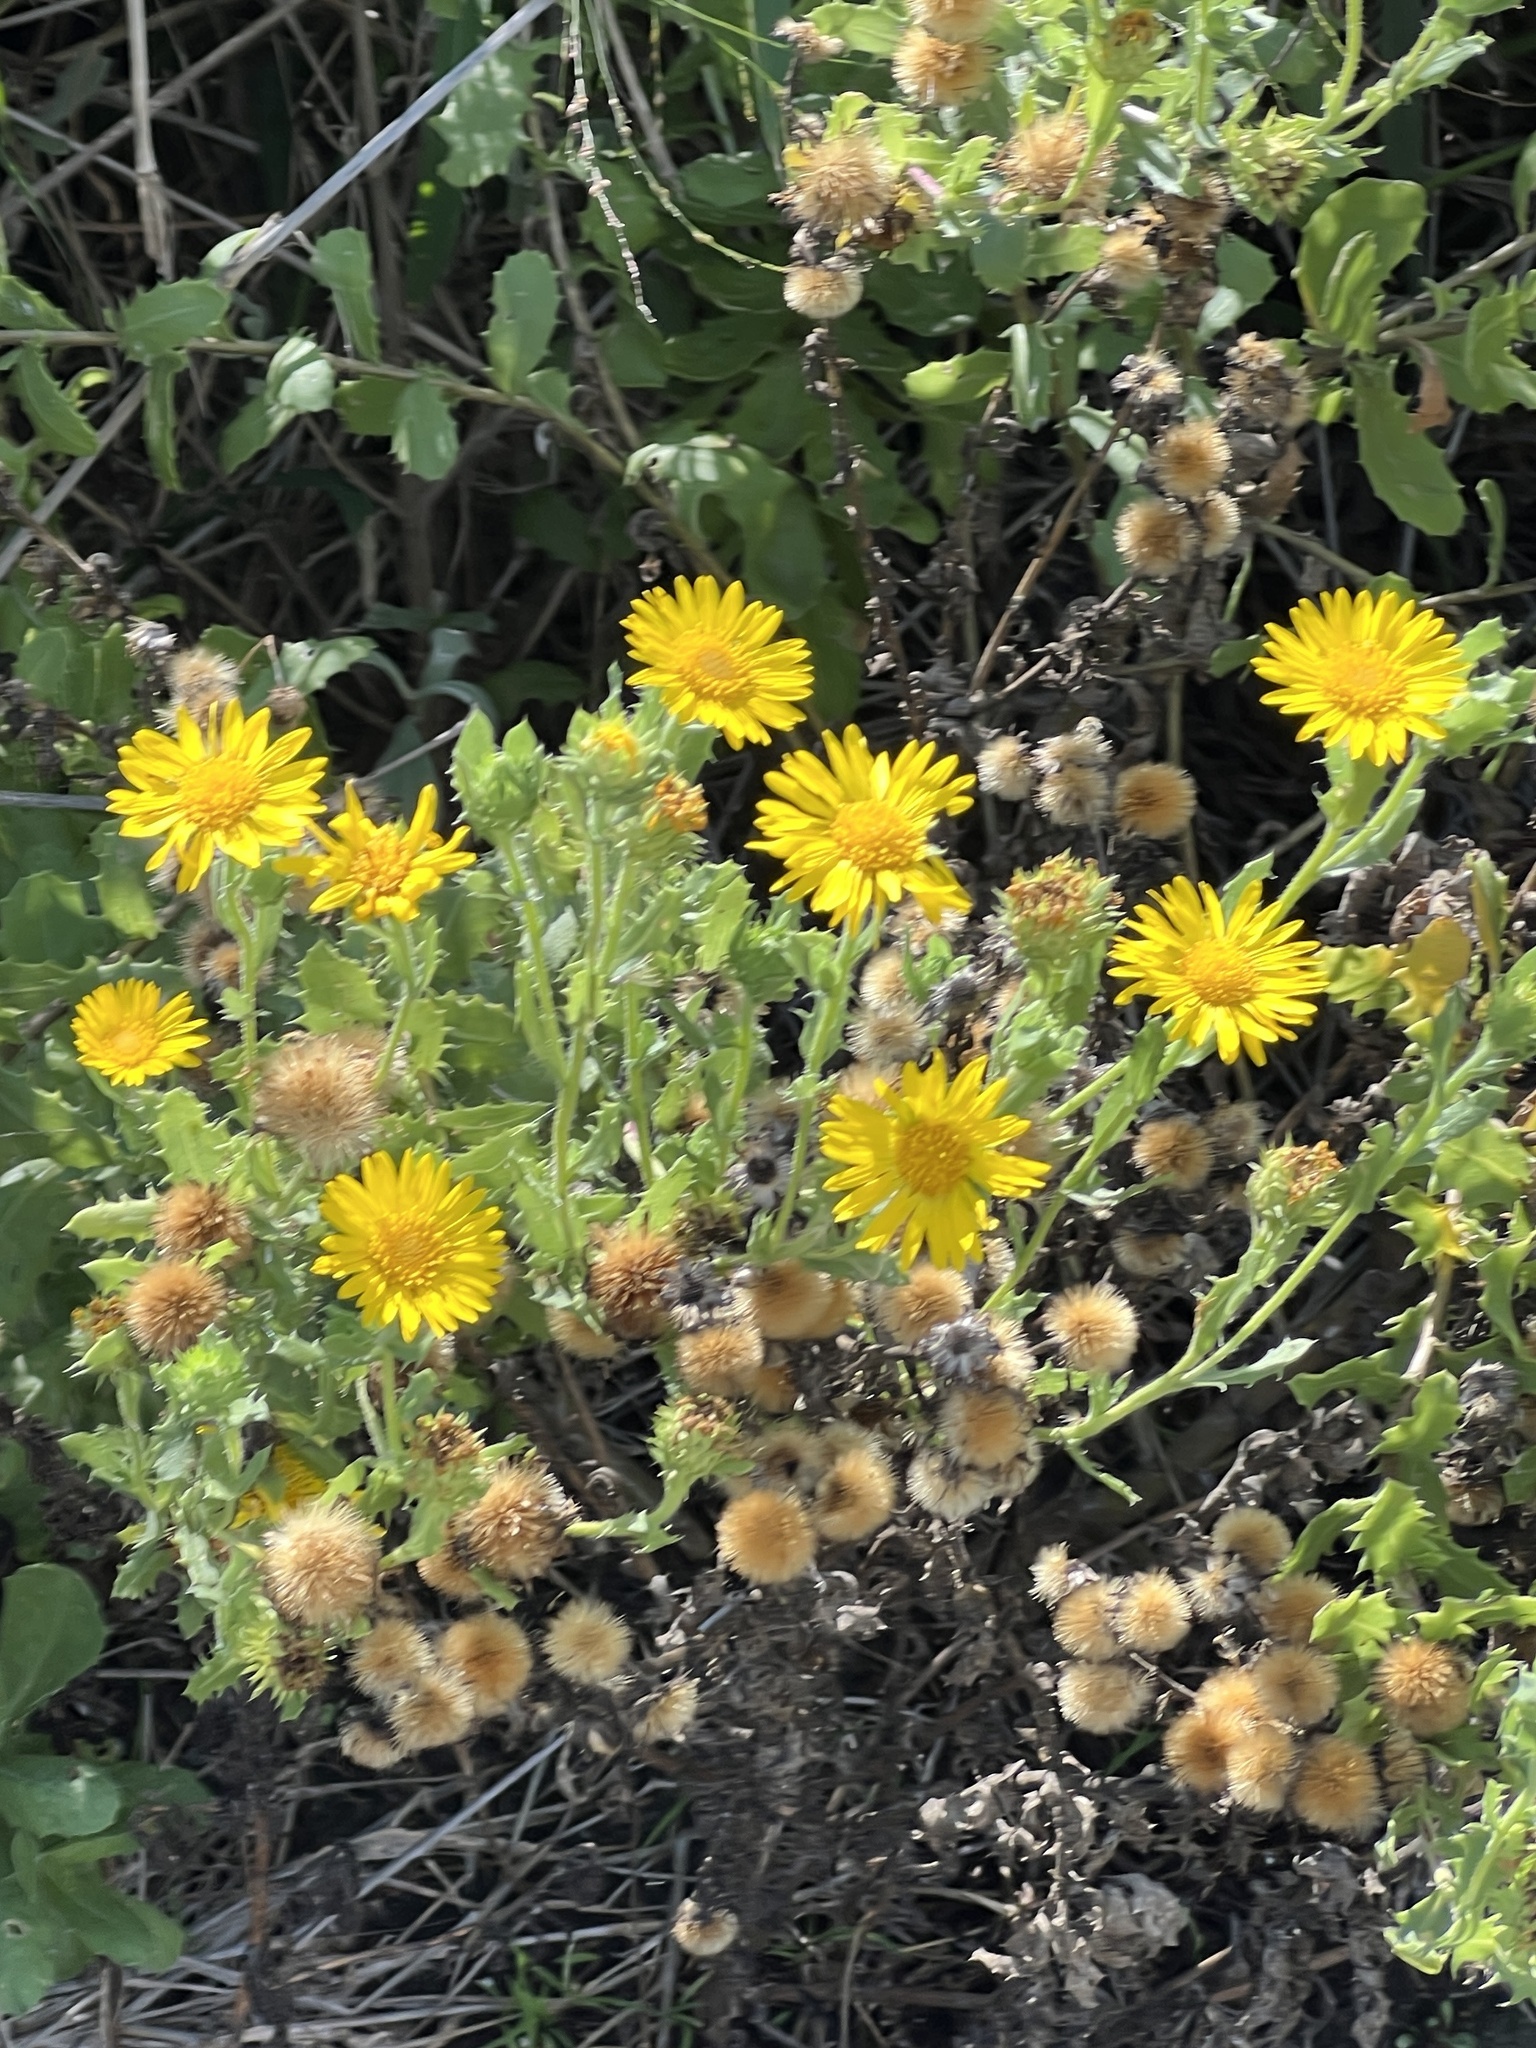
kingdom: Plantae
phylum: Tracheophyta
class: Magnoliopsida
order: Asterales
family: Asteraceae
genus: Rayjacksonia
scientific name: Rayjacksonia phyllocephala
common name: Gulf coast camphor daisy
